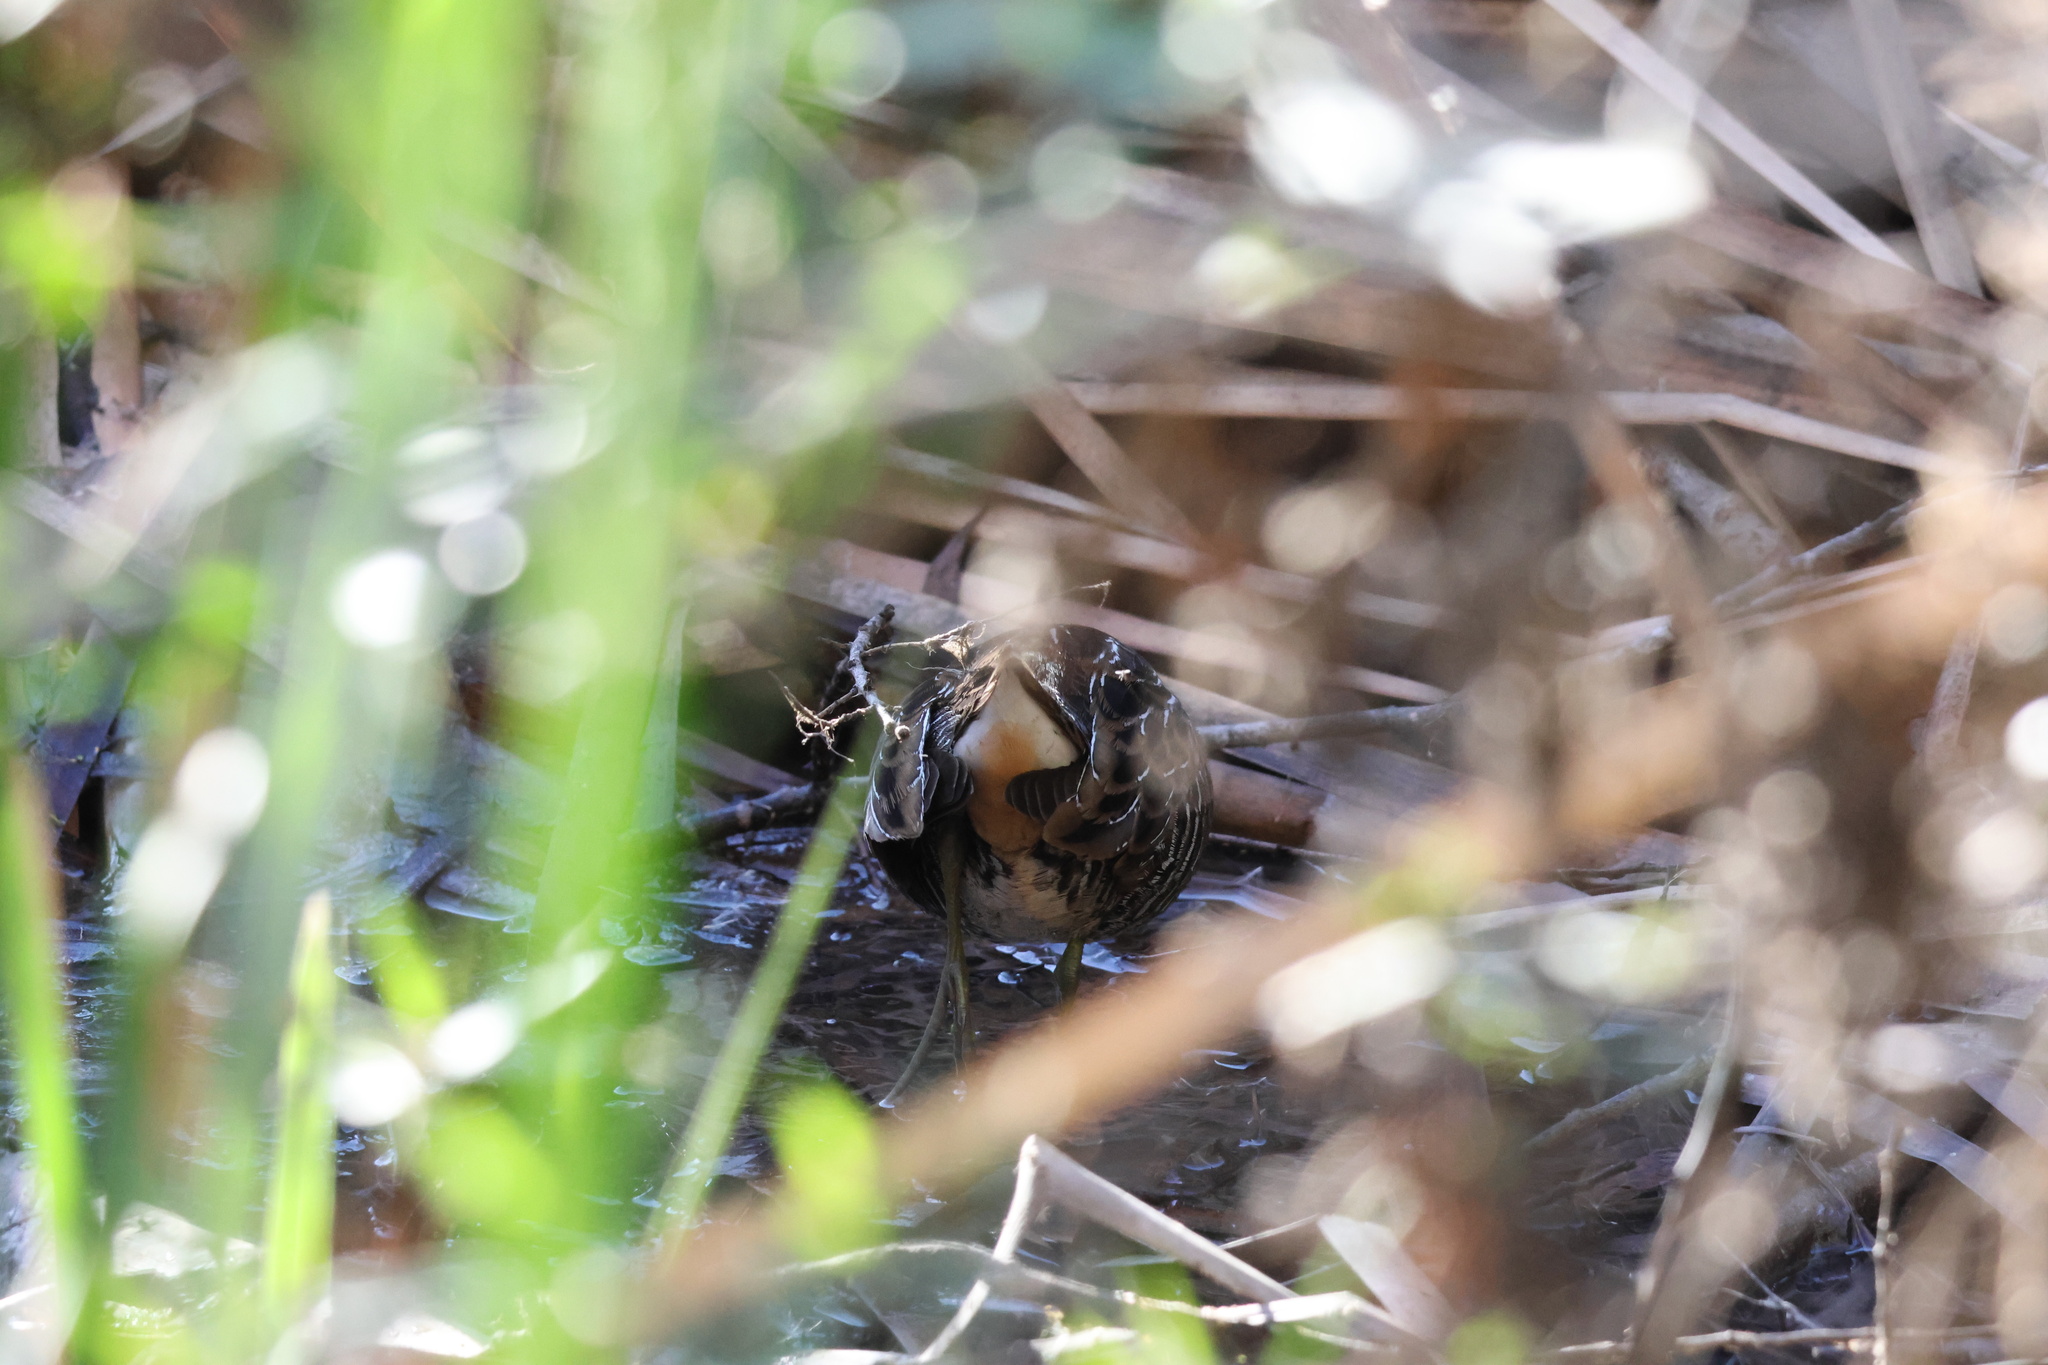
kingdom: Animalia
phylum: Chordata
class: Aves
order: Gruiformes
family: Rallidae
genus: Porzana
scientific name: Porzana carolina
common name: Sora
